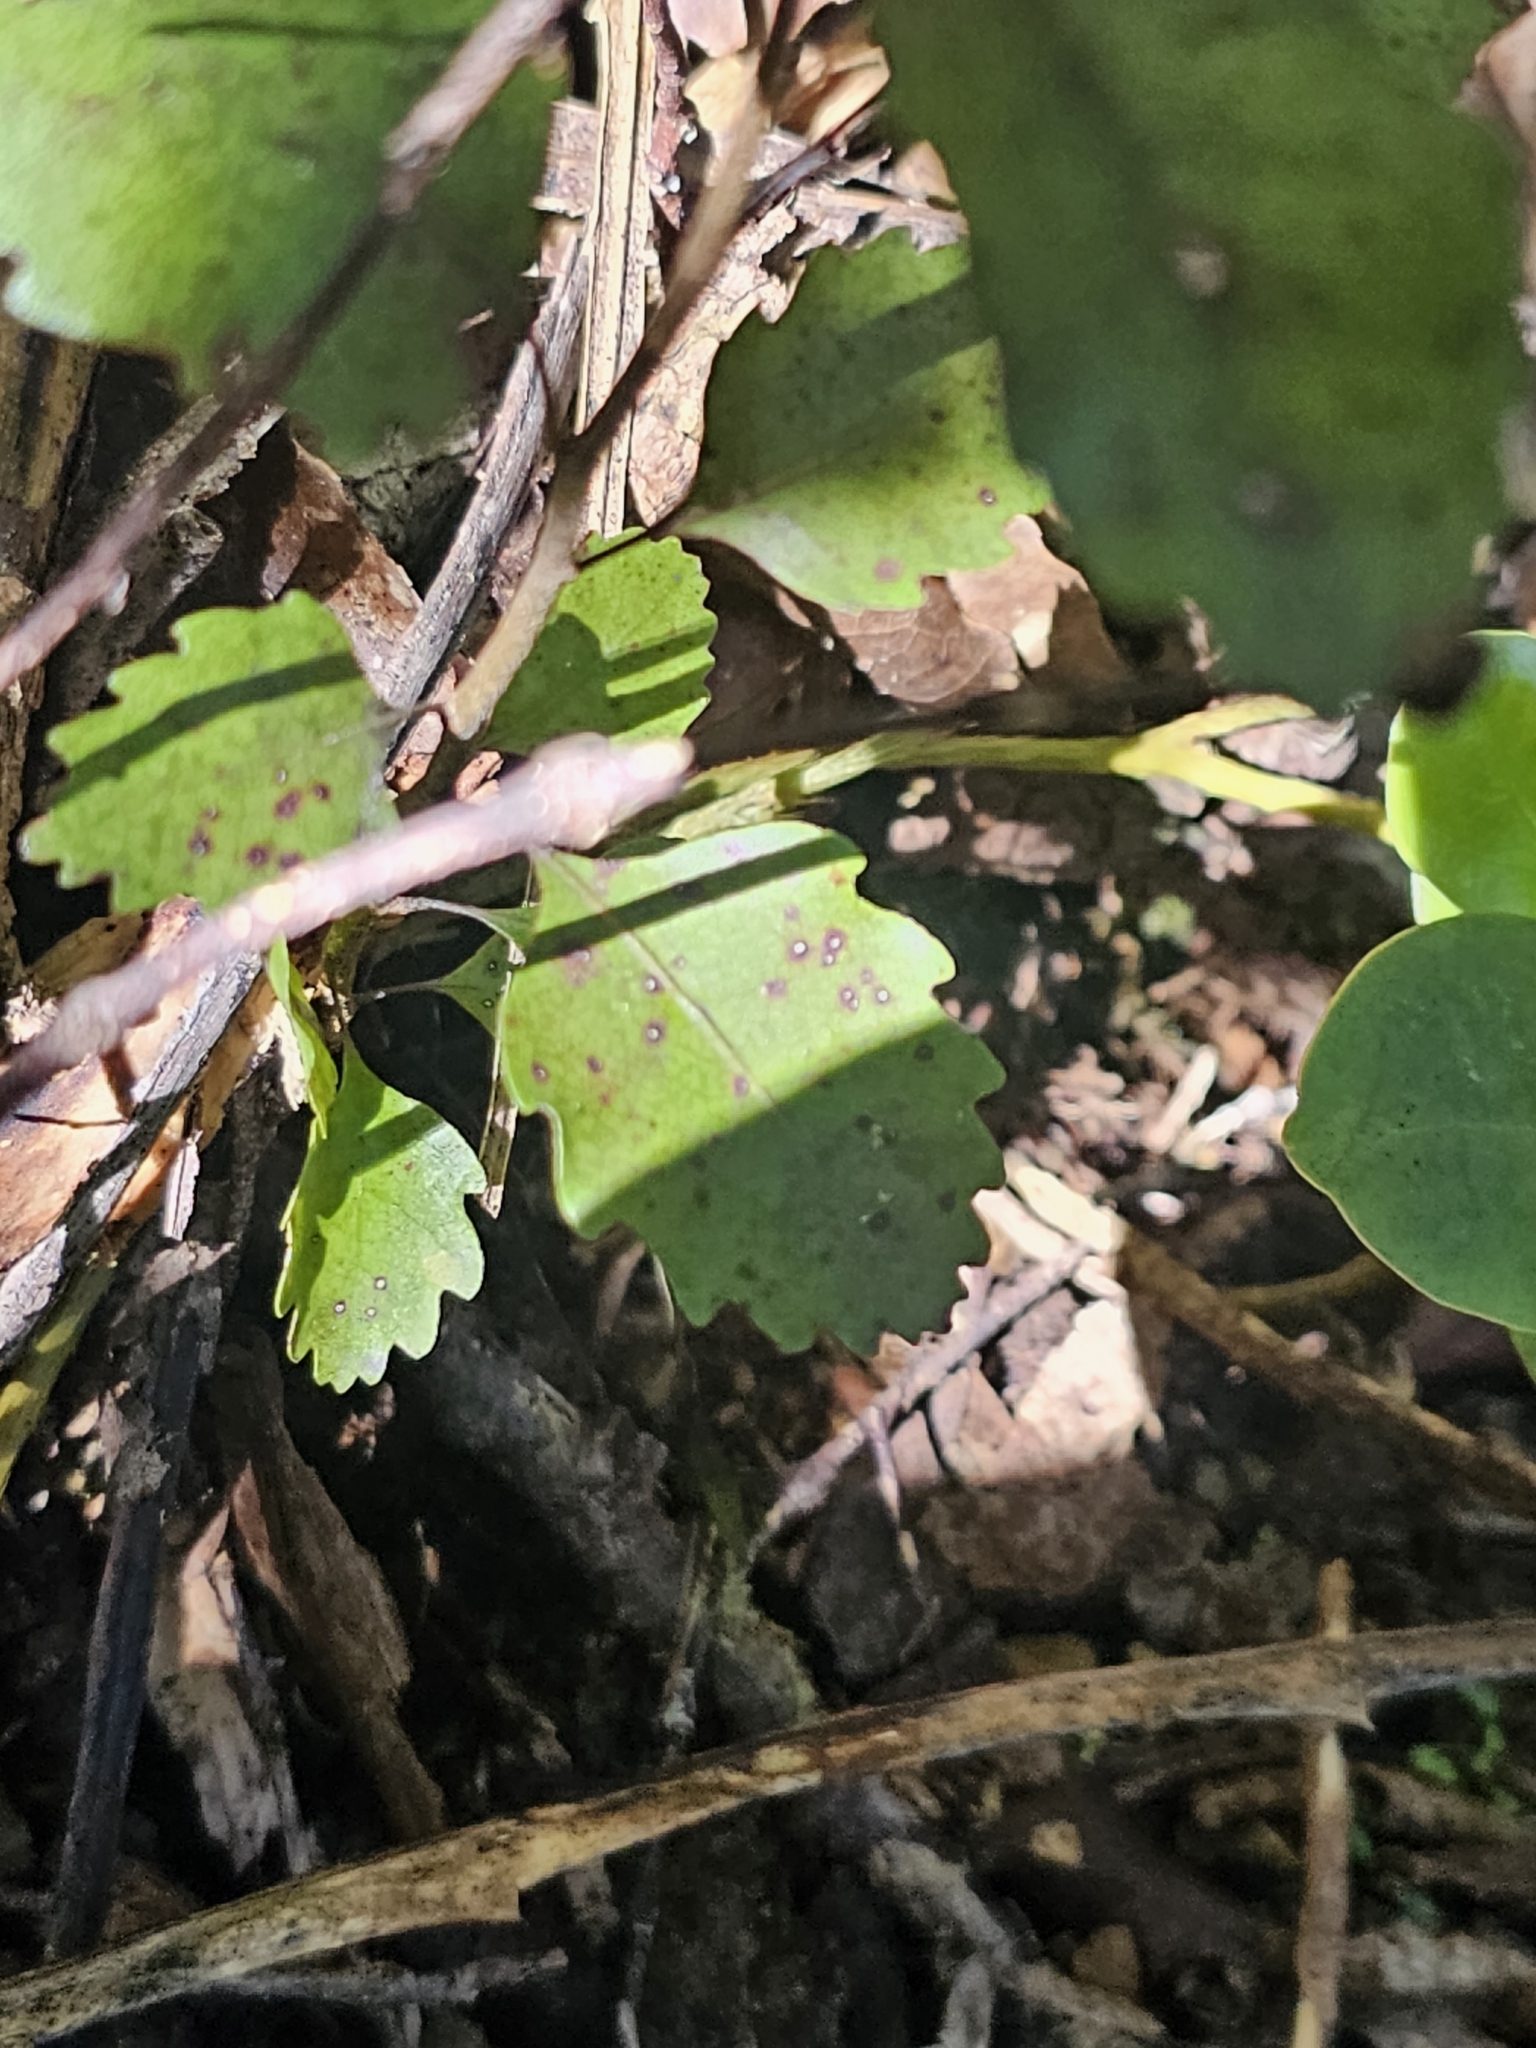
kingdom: Plantae
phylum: Tracheophyta
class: Magnoliopsida
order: Fagales
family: Nothofagaceae
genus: Nothofagus
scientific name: Nothofagus truncata
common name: Hard beech
